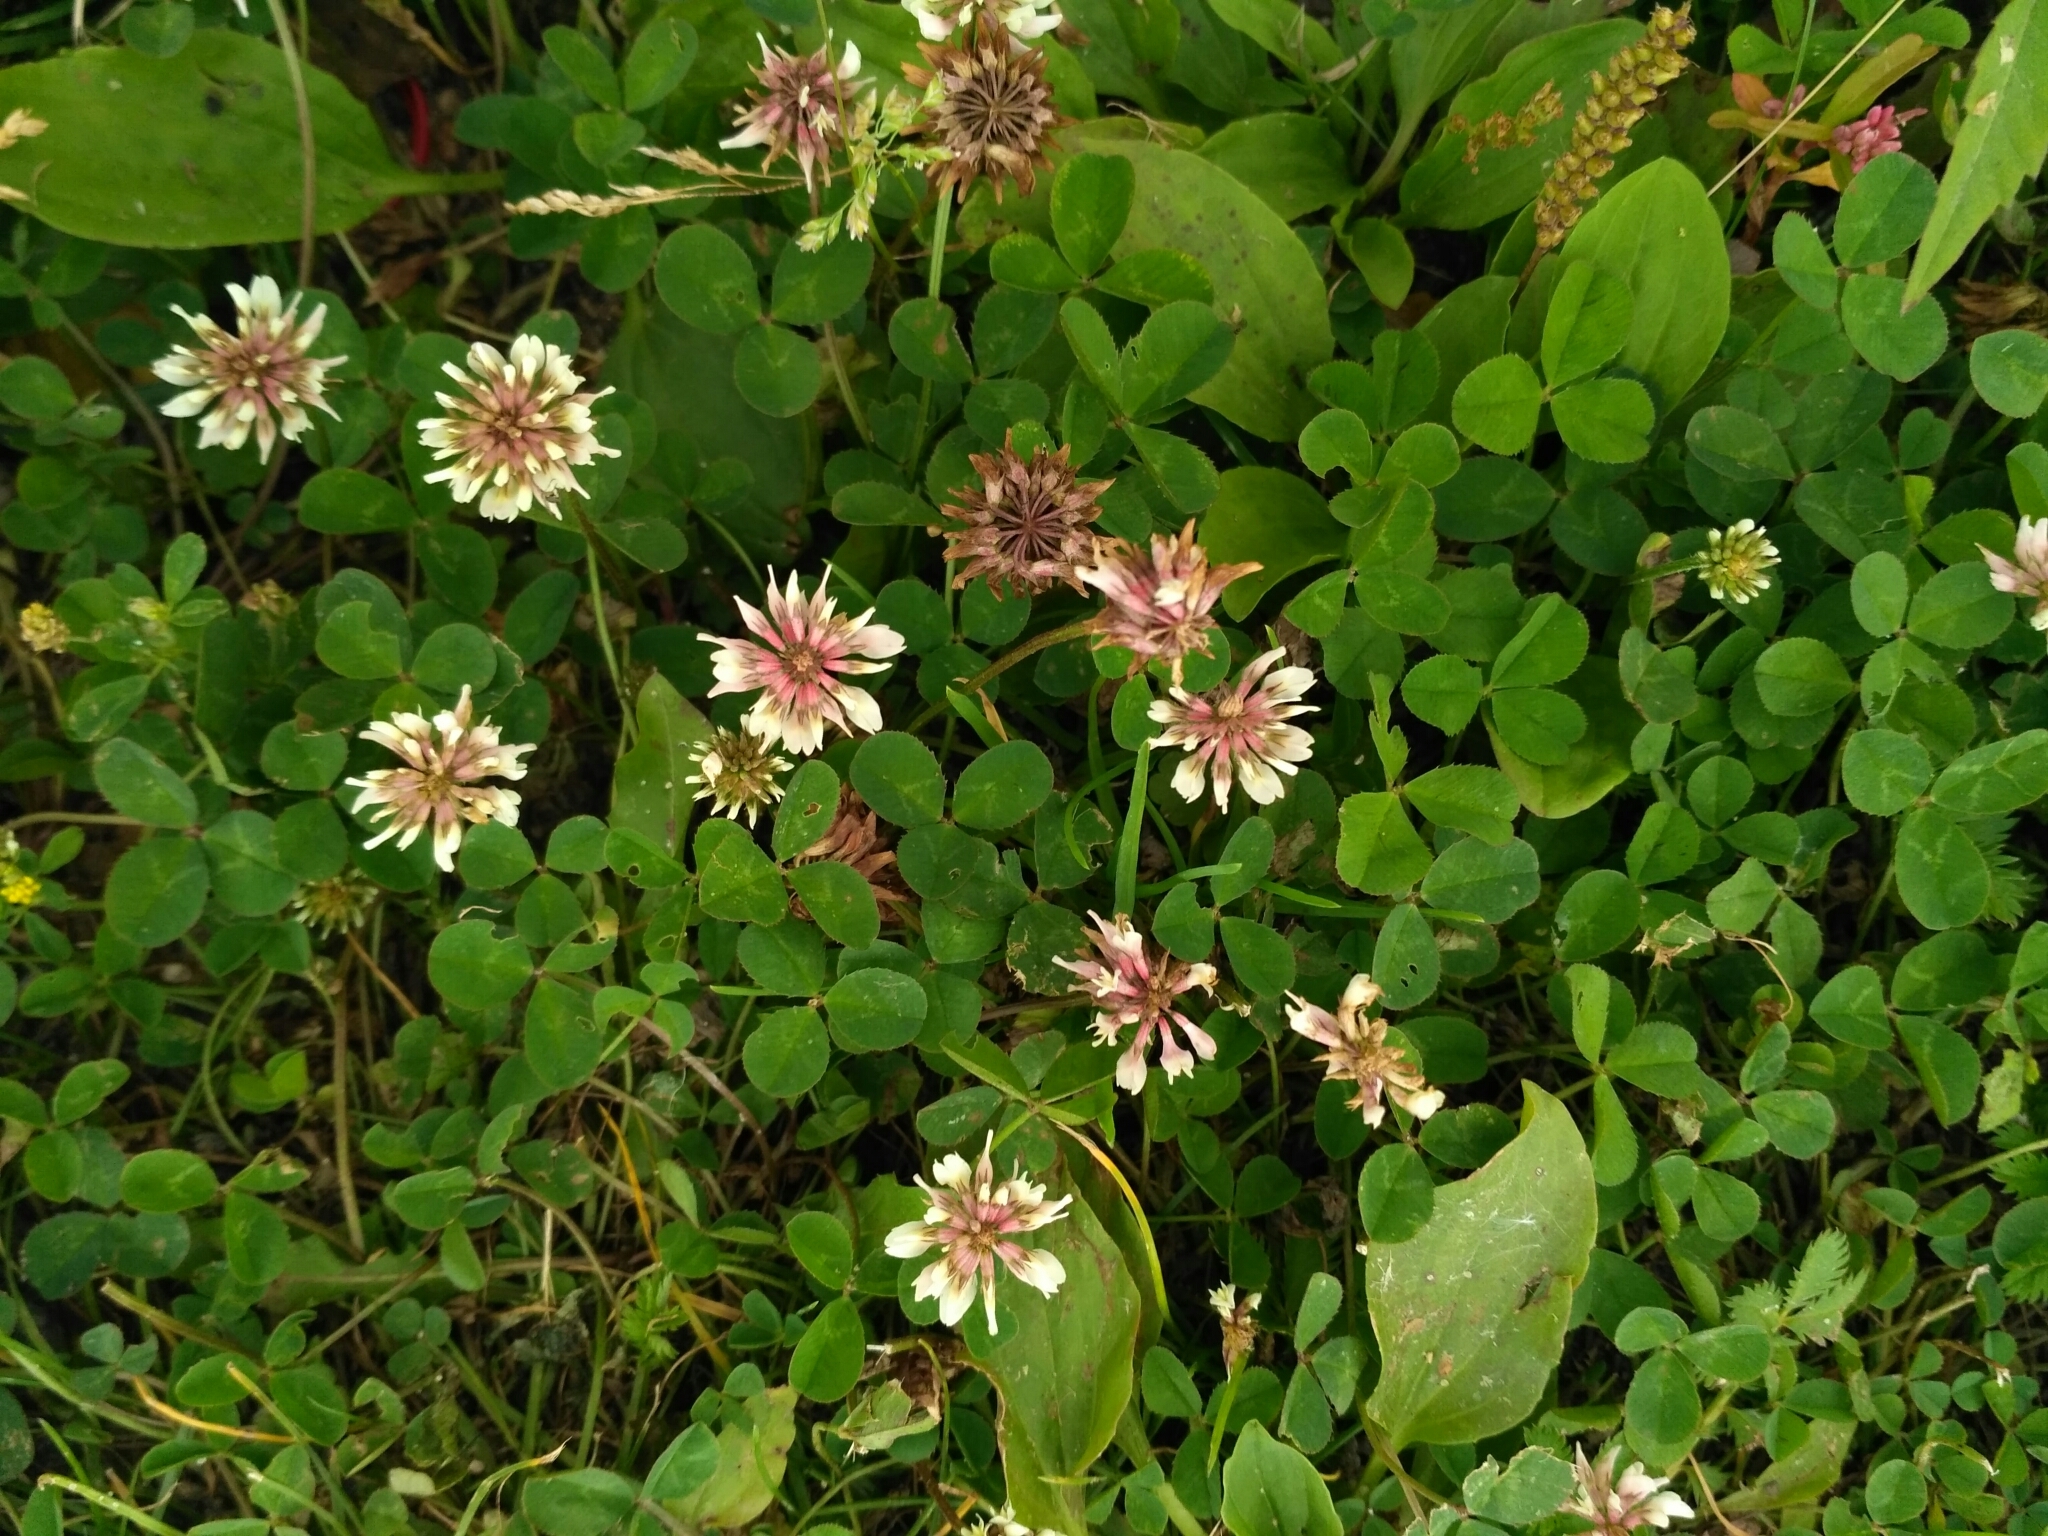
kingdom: Plantae
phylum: Tracheophyta
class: Magnoliopsida
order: Fabales
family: Fabaceae
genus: Trifolium
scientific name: Trifolium repens
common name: White clover
